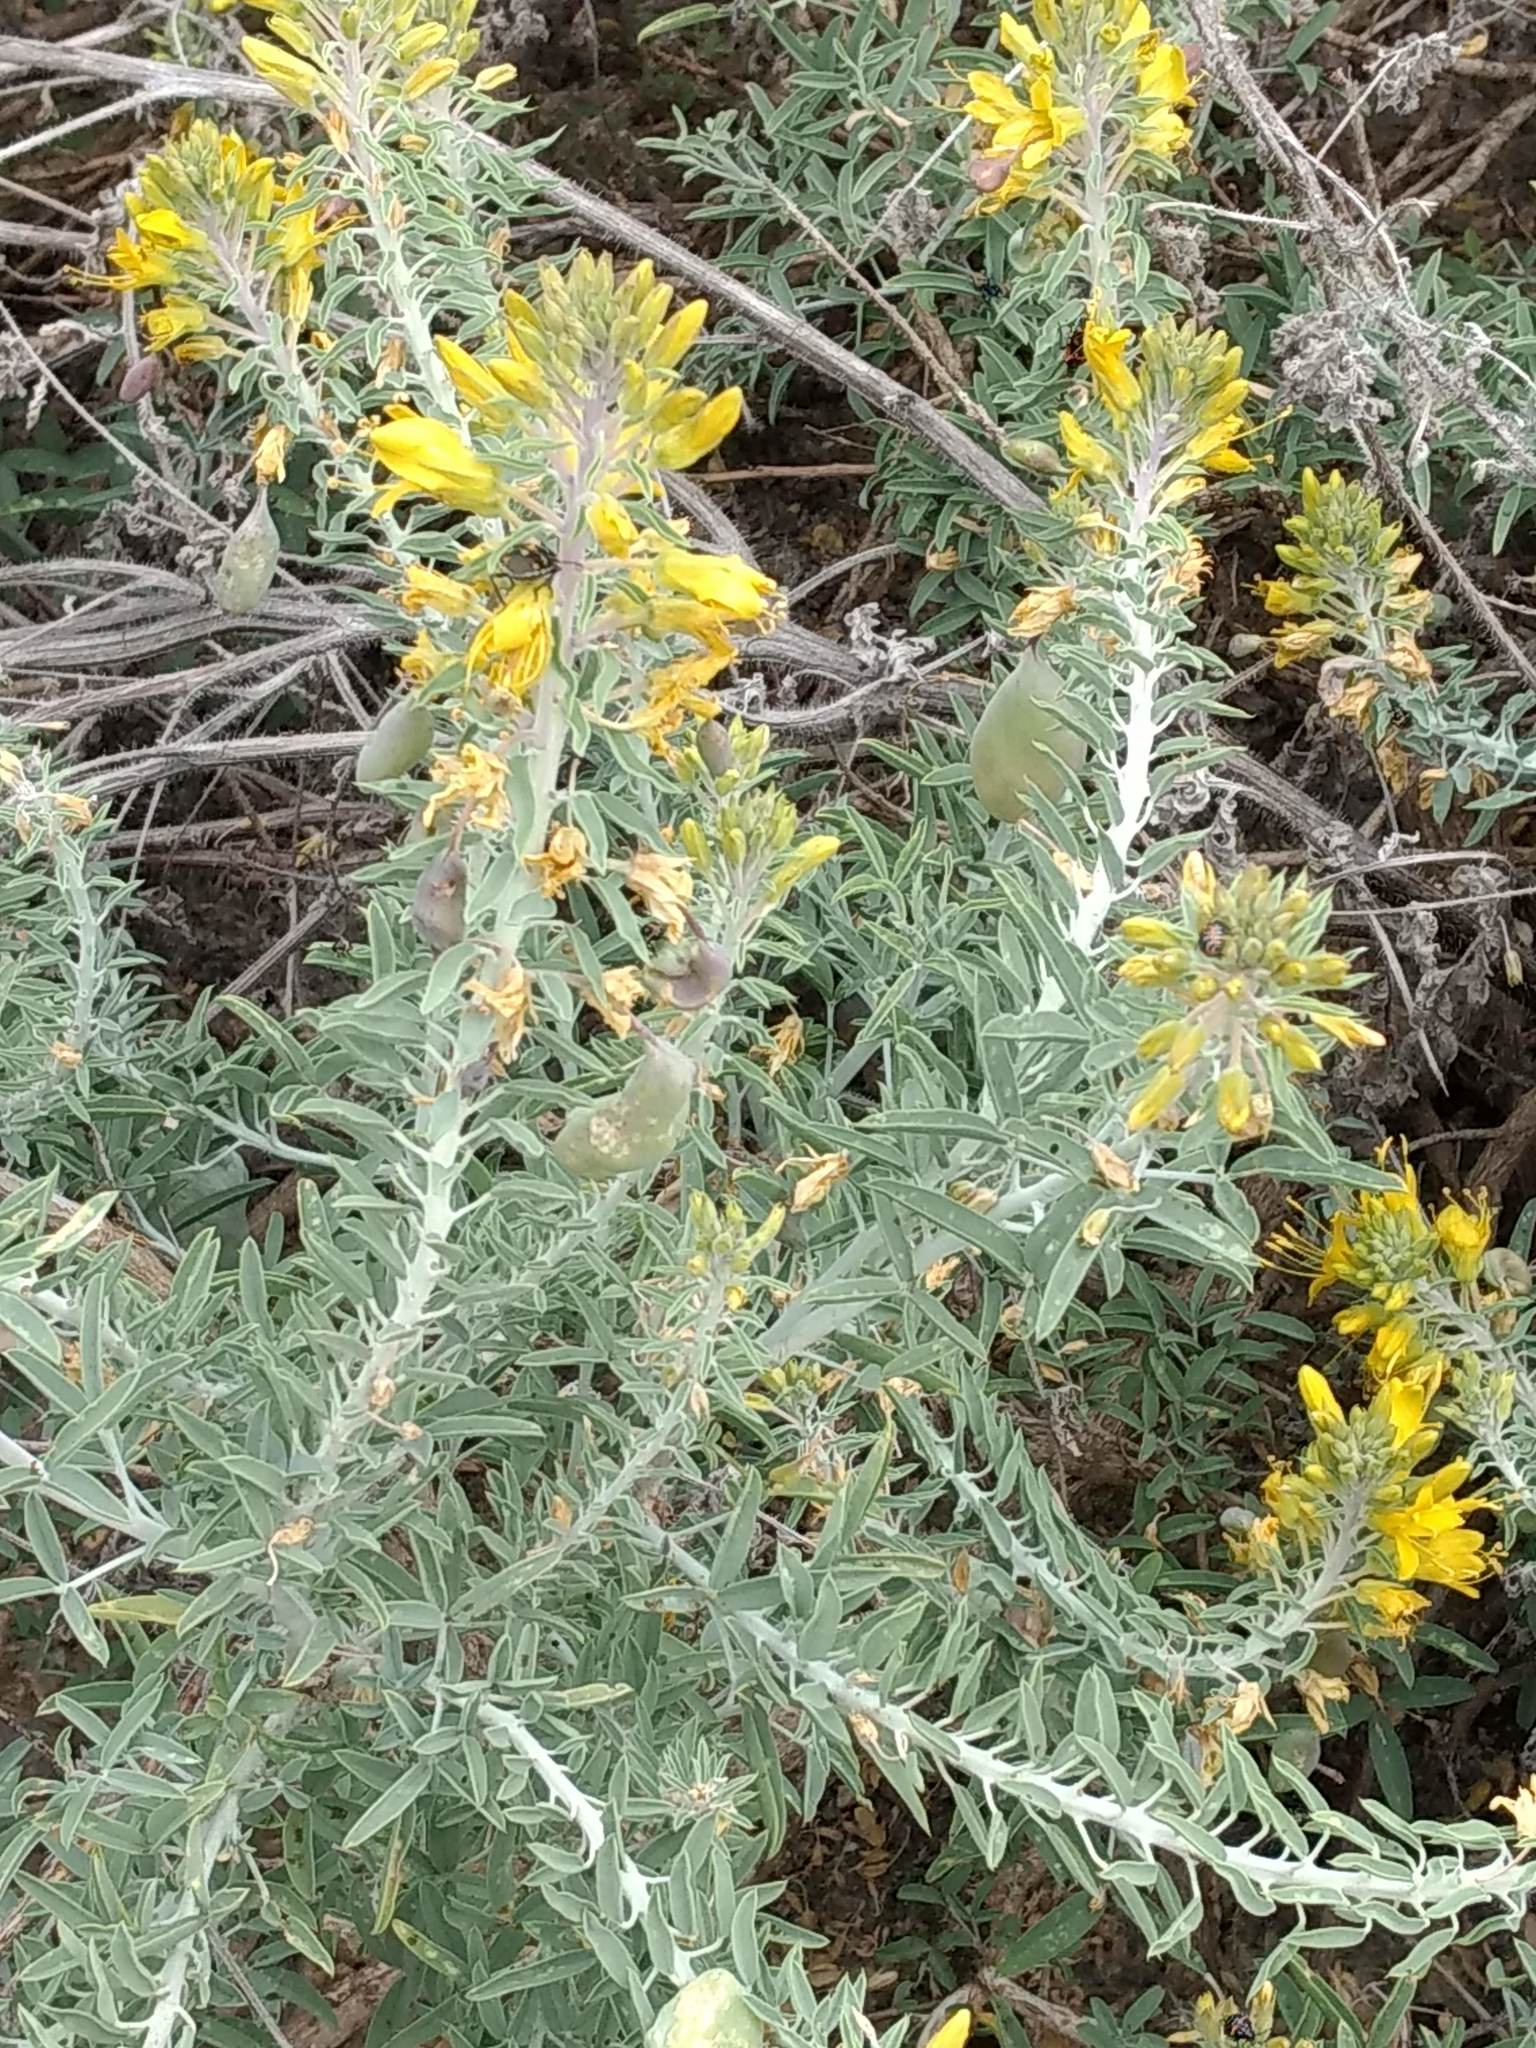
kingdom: Plantae
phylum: Tracheophyta
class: Magnoliopsida
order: Brassicales
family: Cleomaceae
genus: Cleomella
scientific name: Cleomella arborea
